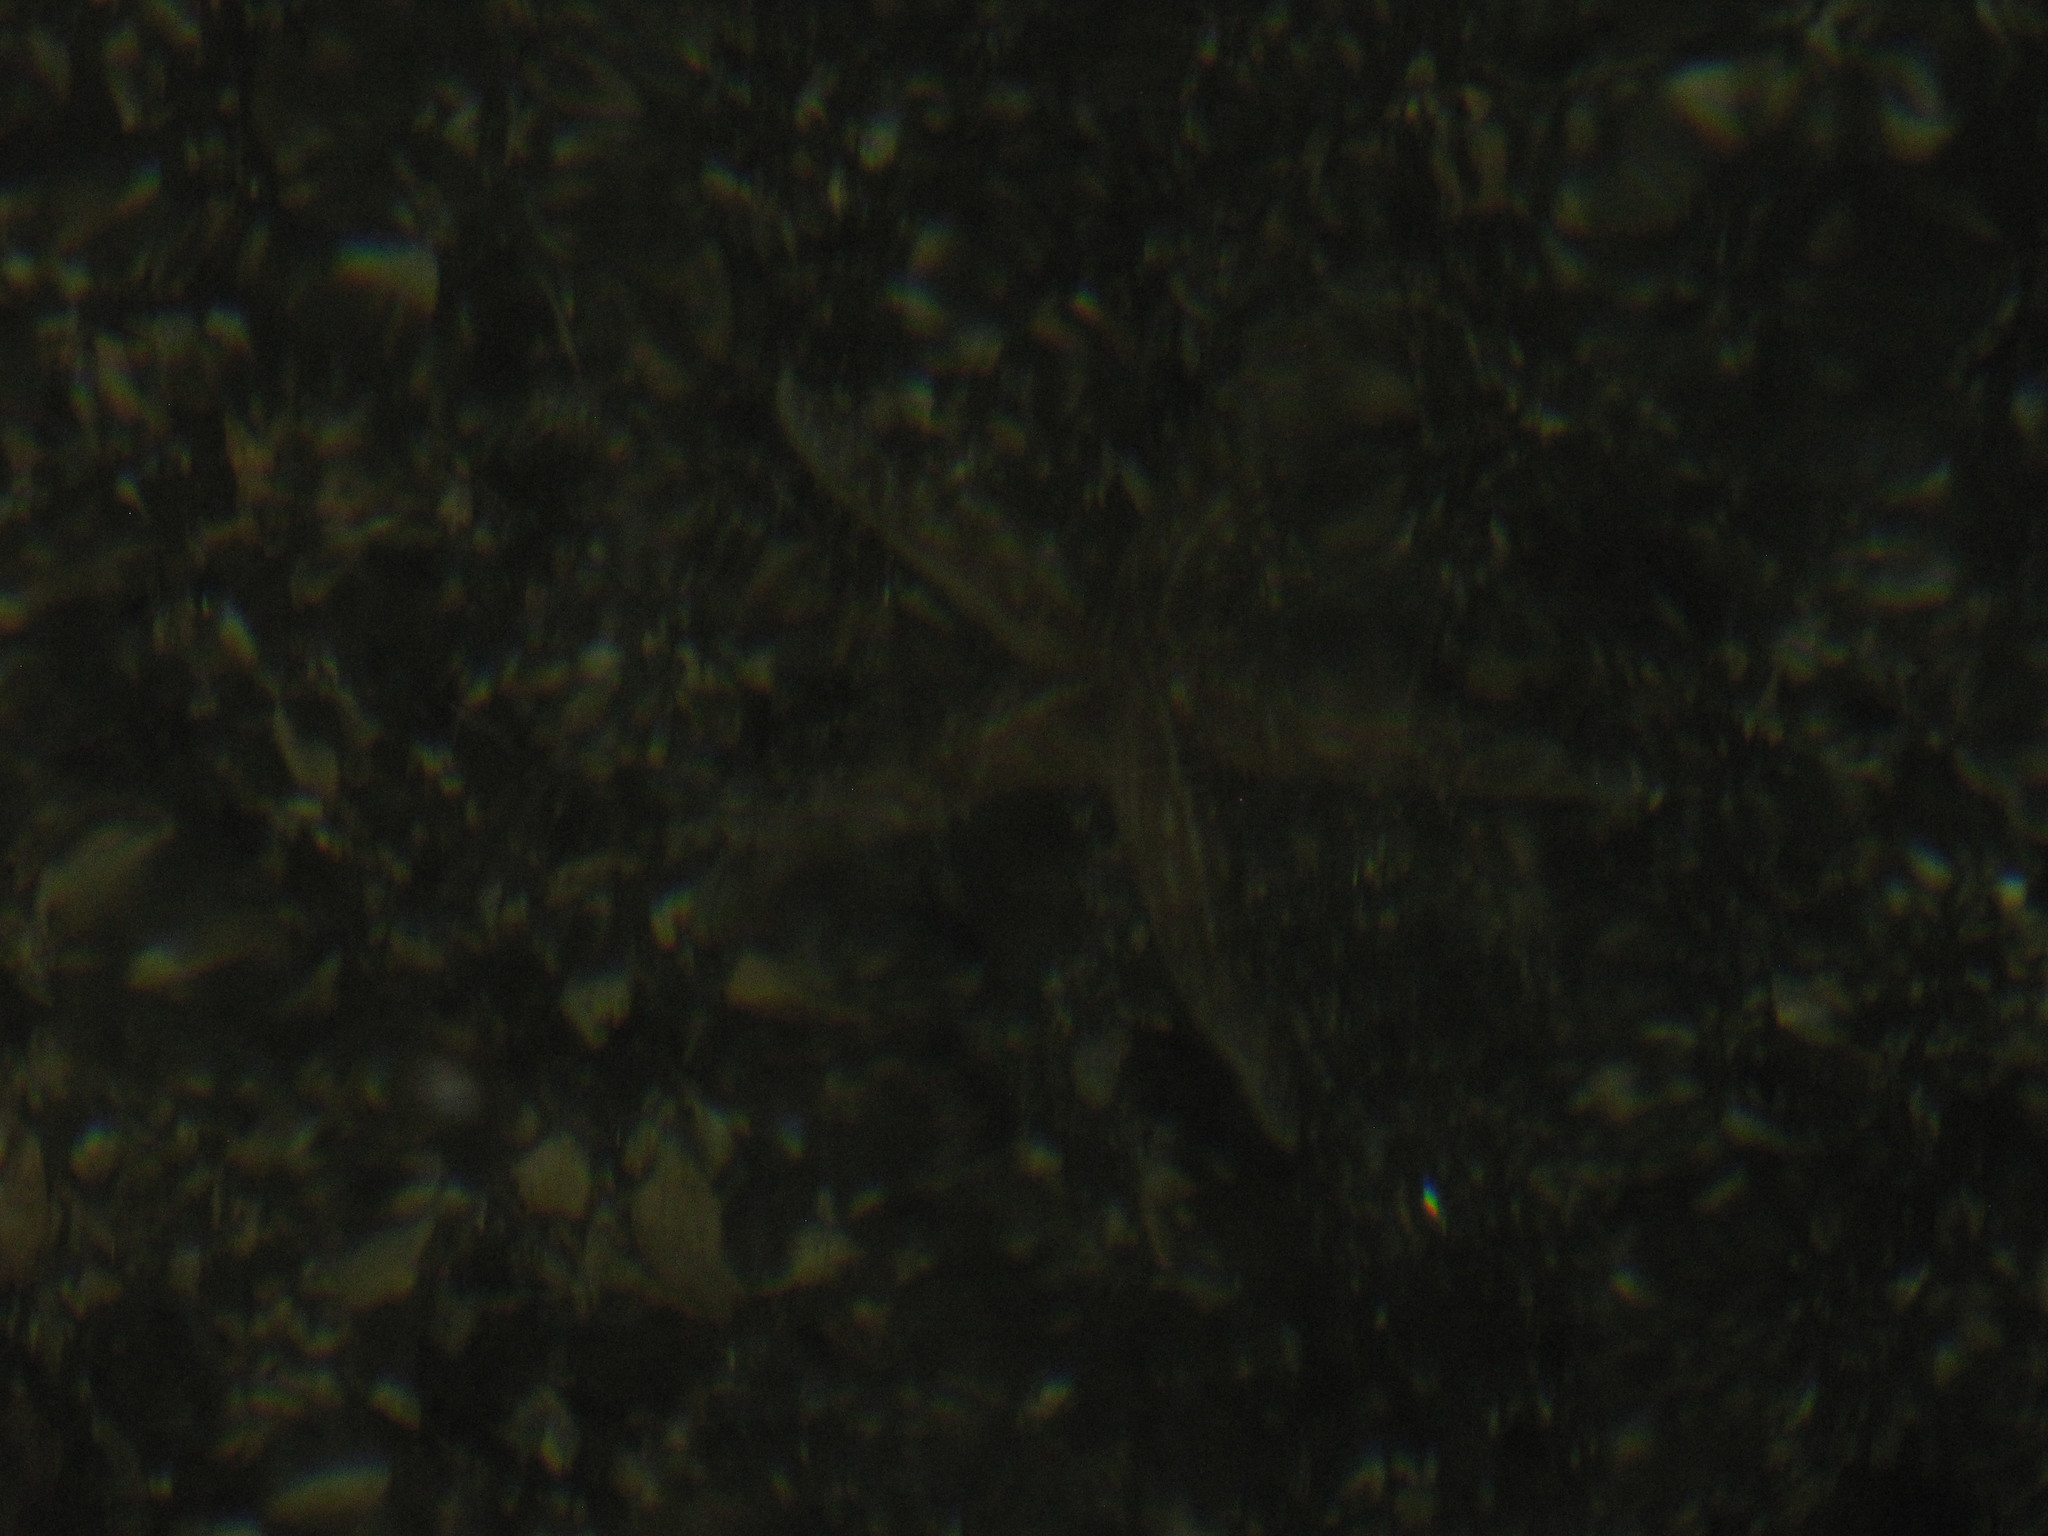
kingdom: Animalia
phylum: Echinodermata
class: Asteroidea
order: Forcipulatida
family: Asteriidae
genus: Evasterias
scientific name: Evasterias troschelii
